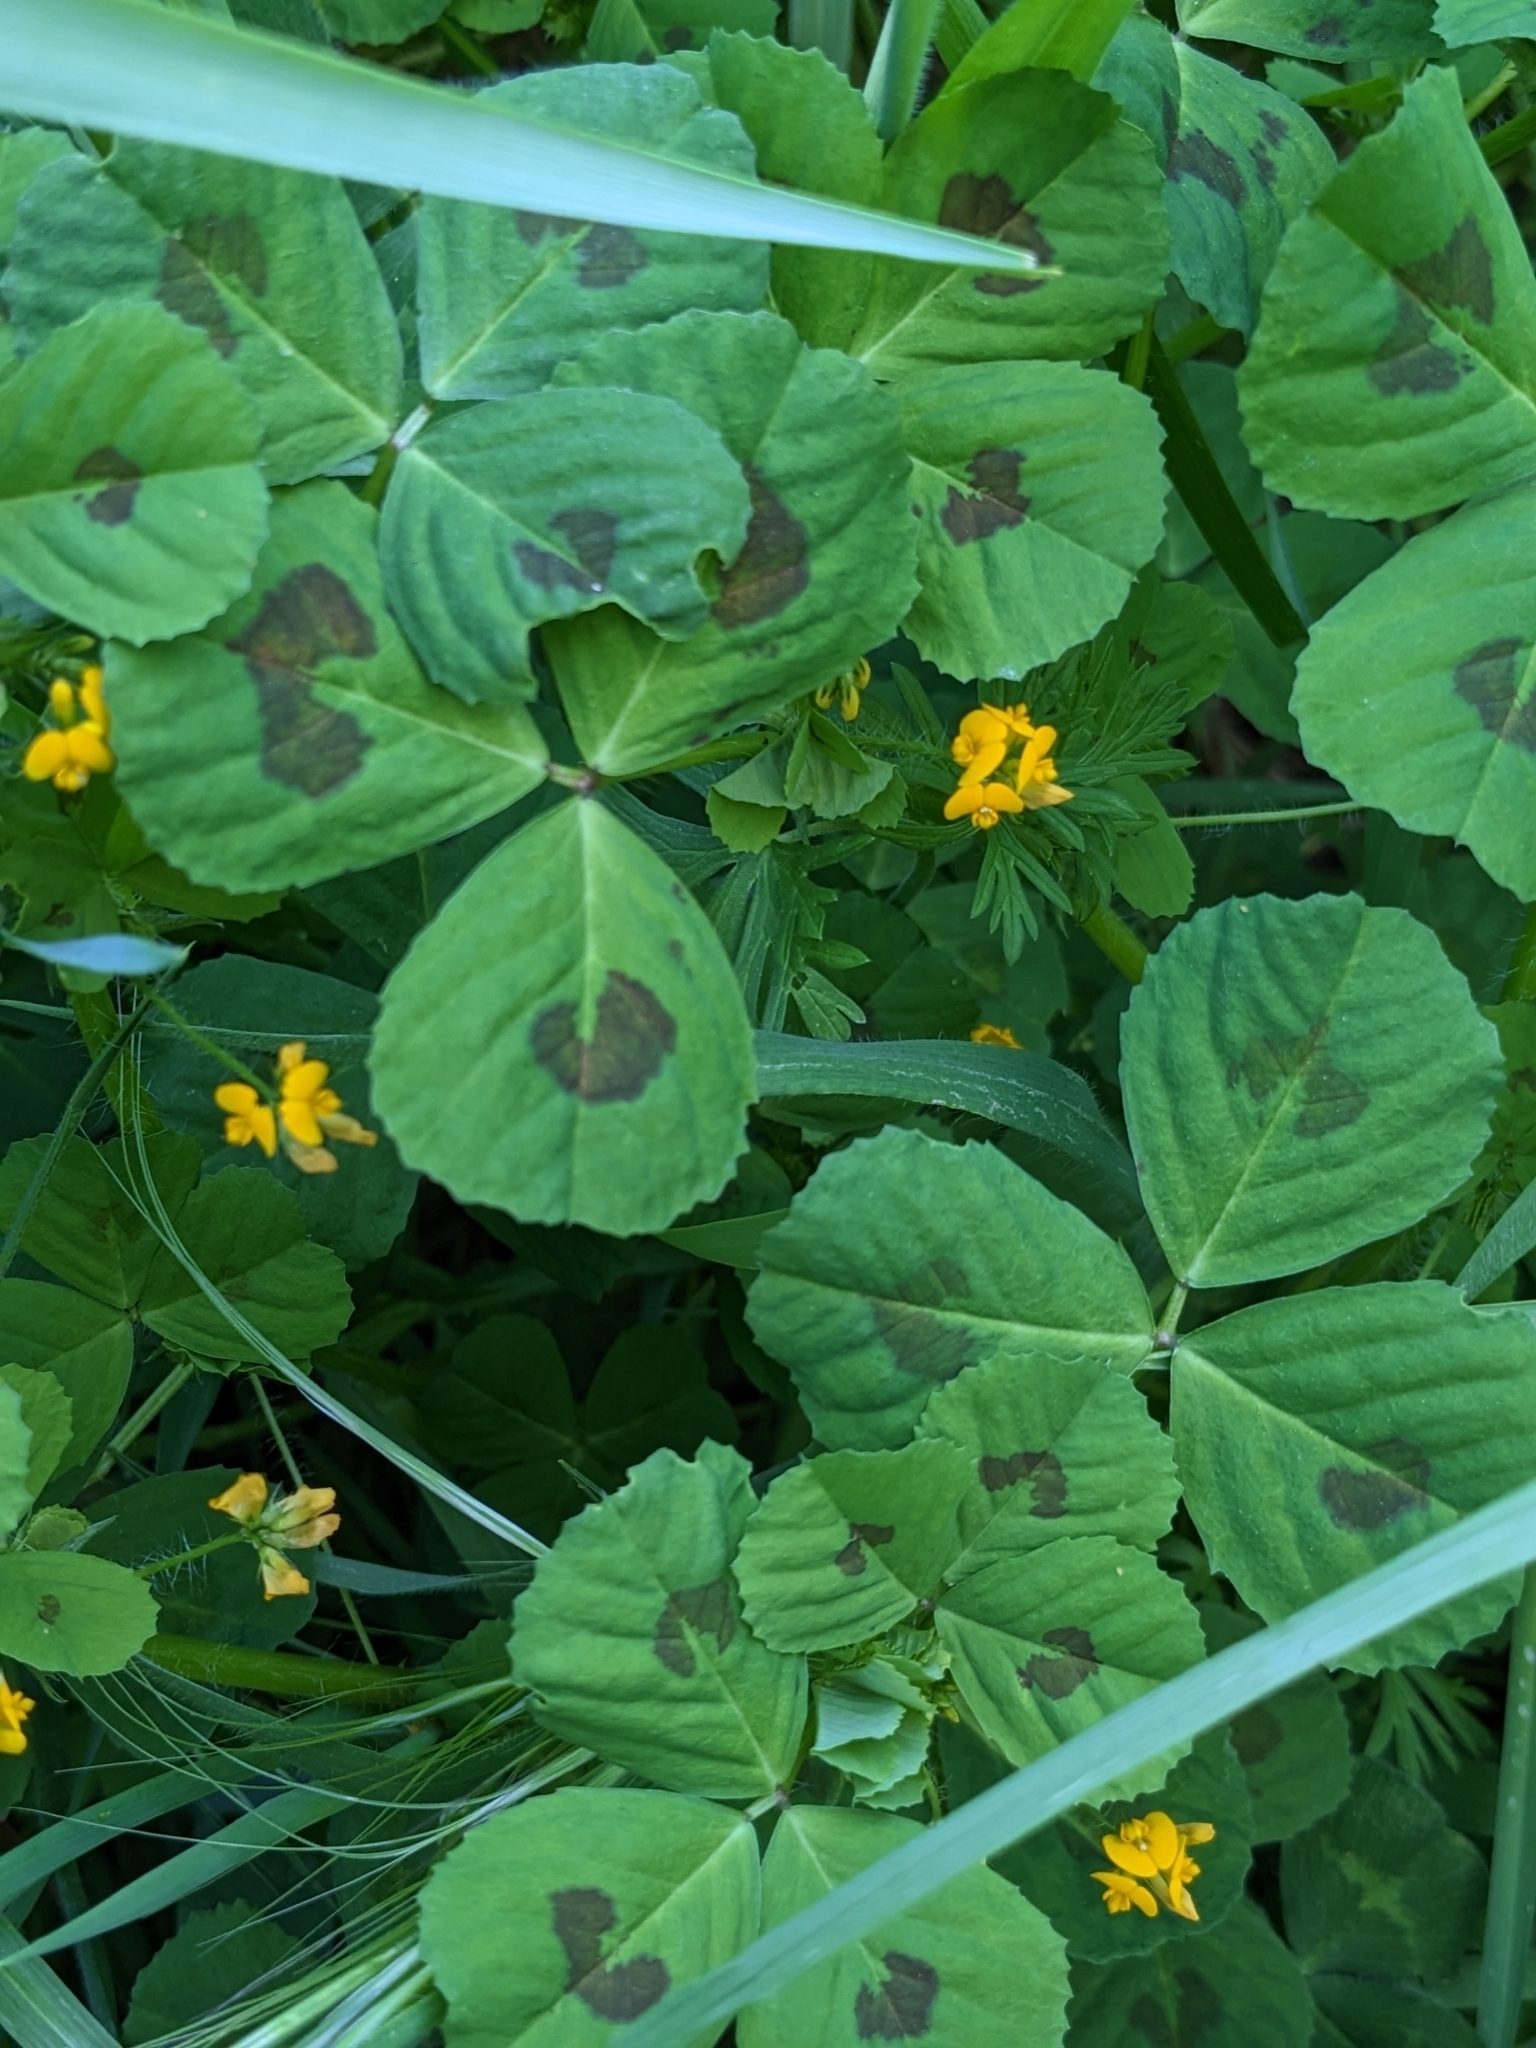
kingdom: Plantae
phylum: Tracheophyta
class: Magnoliopsida
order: Fabales
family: Fabaceae
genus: Medicago
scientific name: Medicago arabica
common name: Spotted medick
